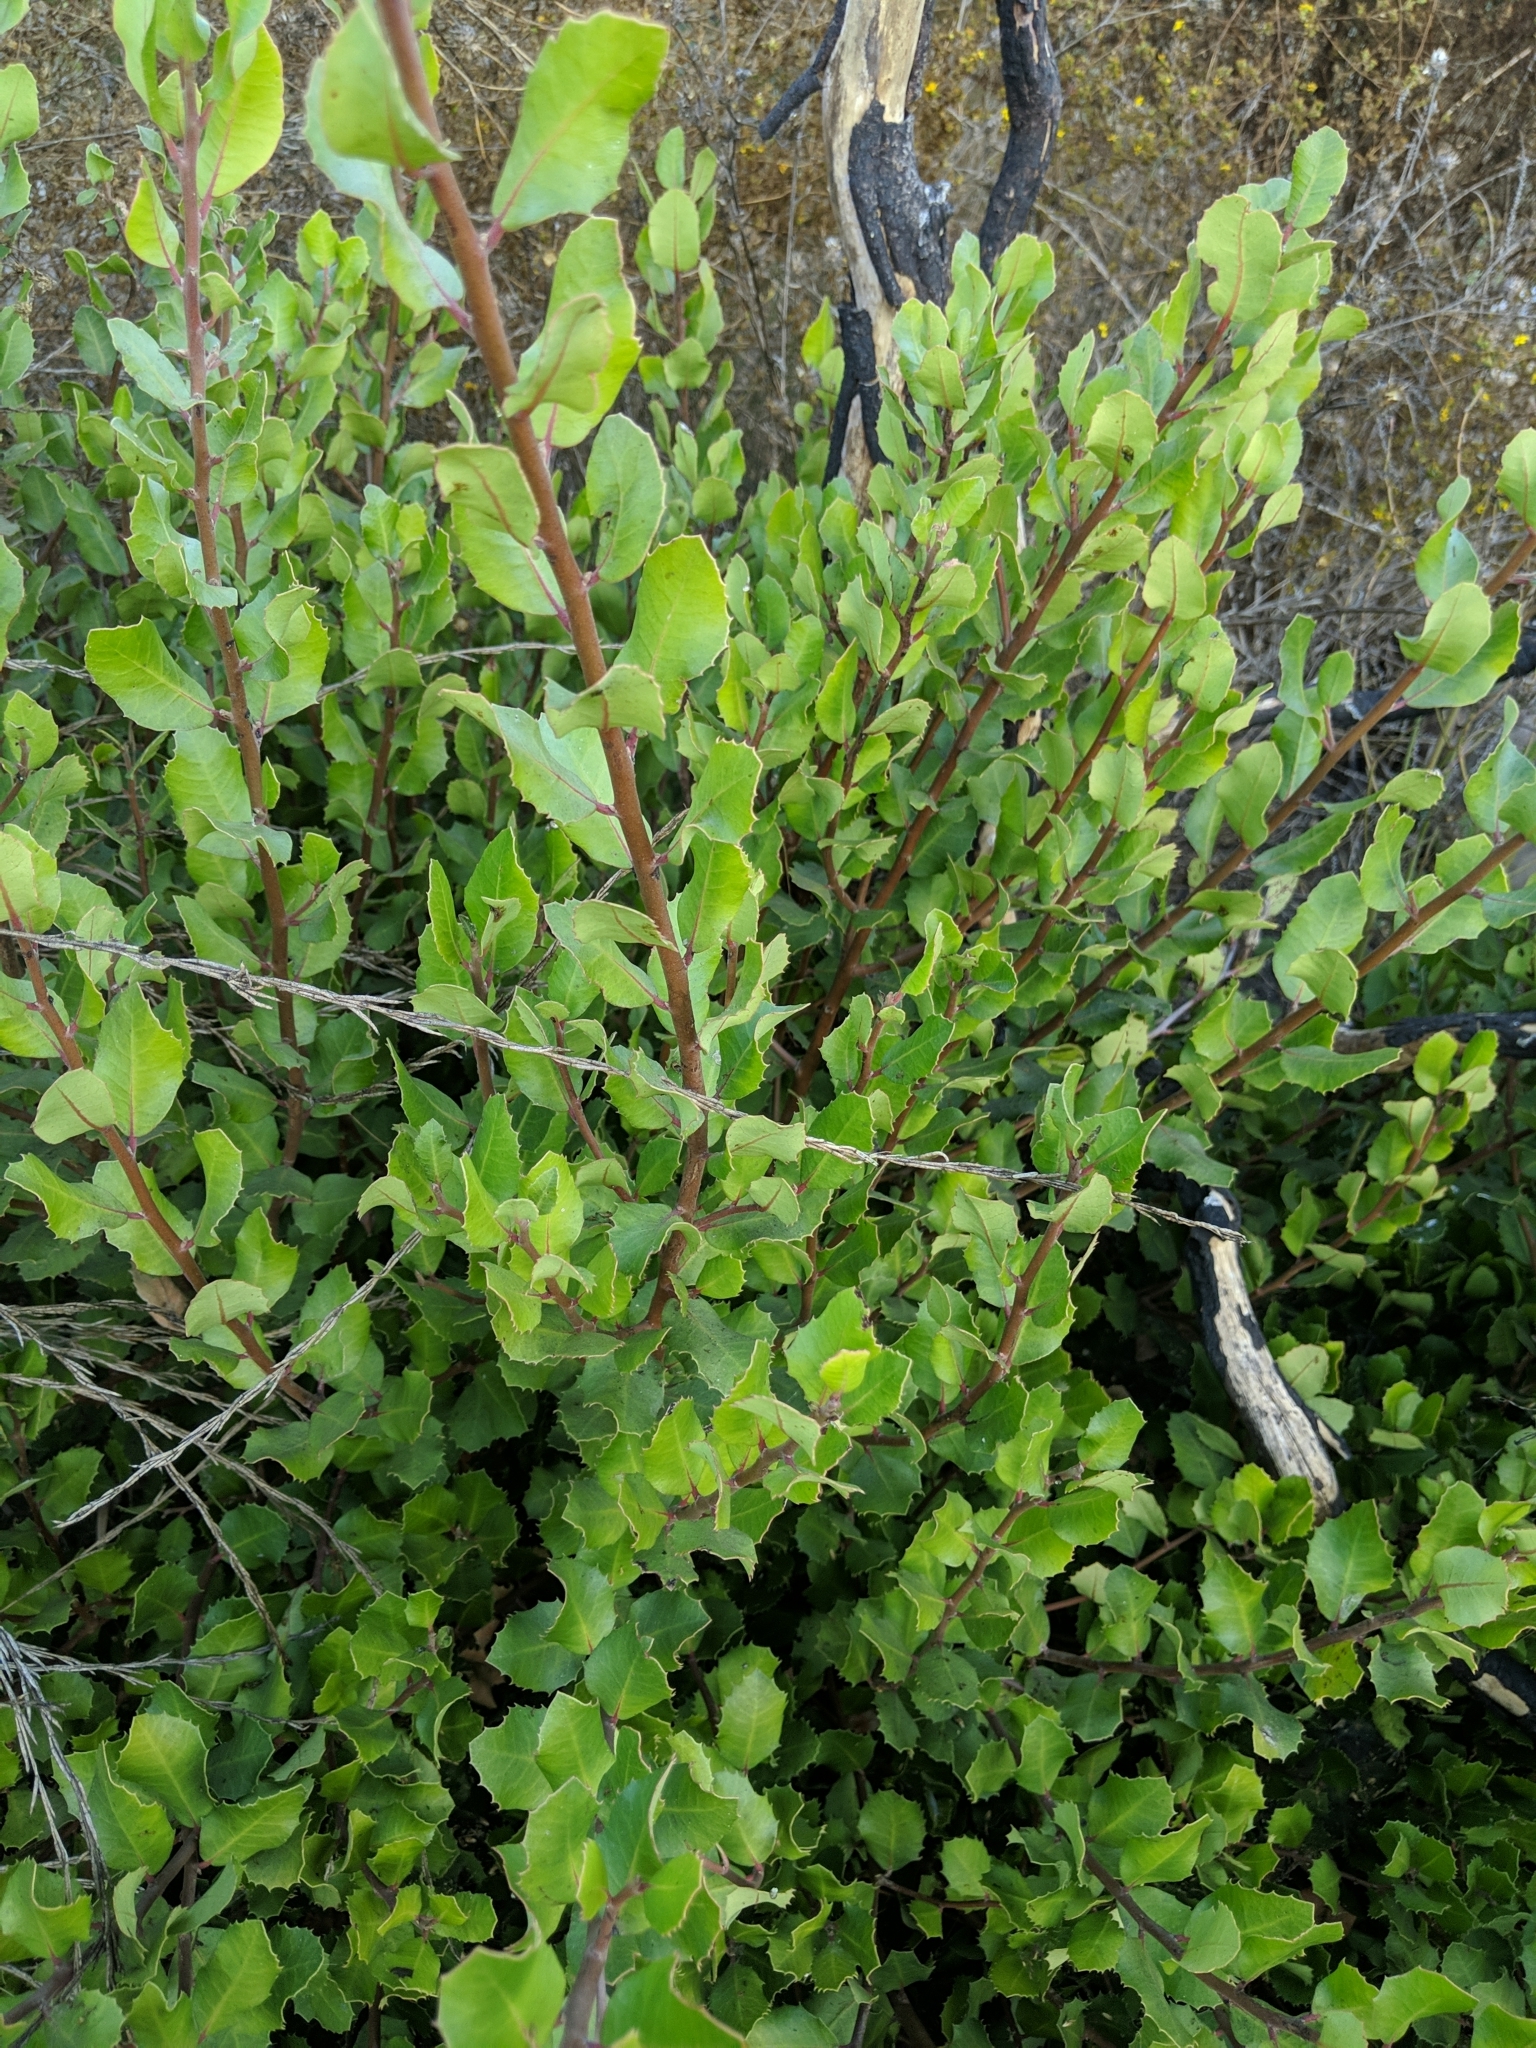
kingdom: Plantae
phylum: Tracheophyta
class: Magnoliopsida
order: Sapindales
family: Anacardiaceae
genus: Rhus
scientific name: Rhus integrifolia
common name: Lemonade sumac
